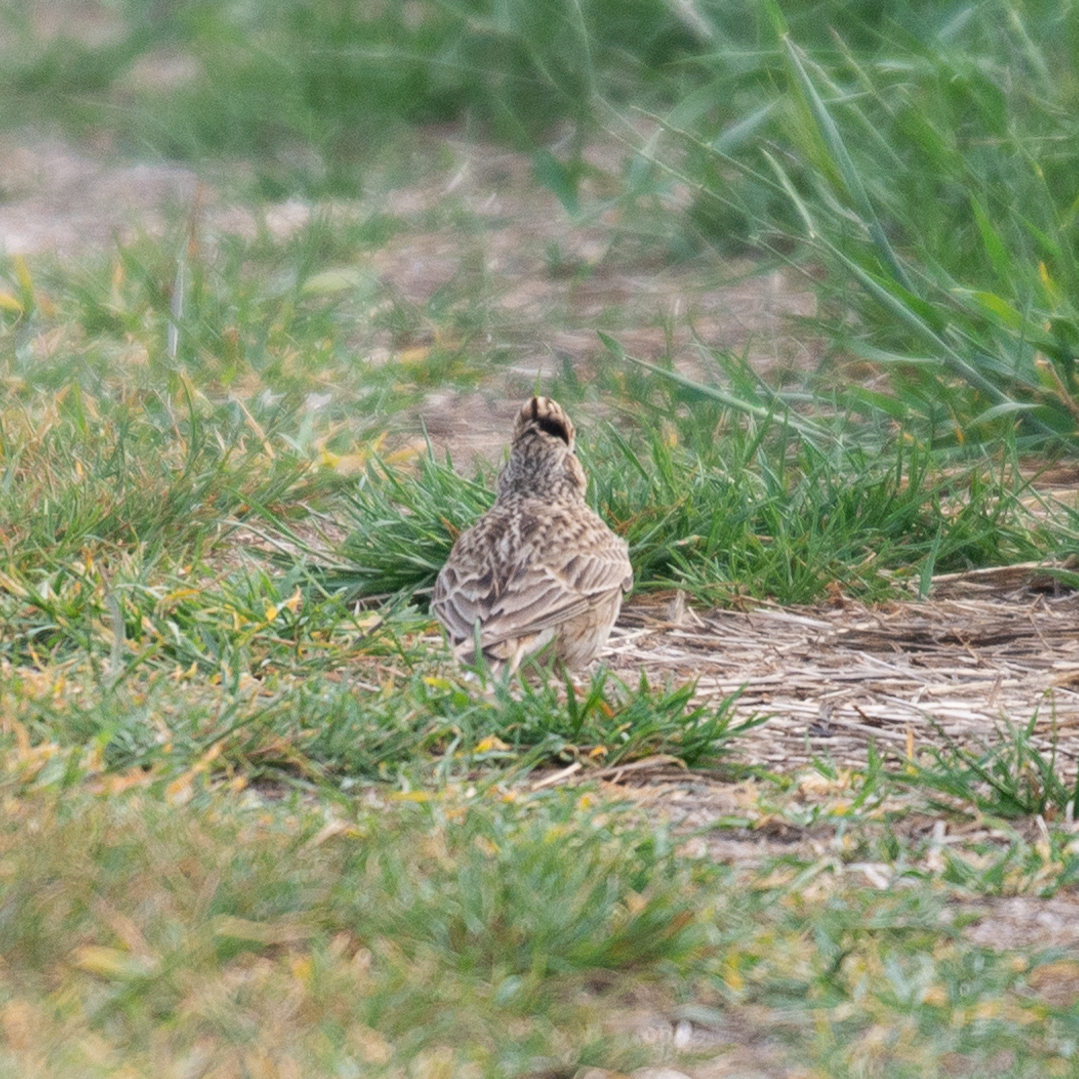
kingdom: Animalia
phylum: Chordata
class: Aves
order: Passeriformes
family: Alaudidae
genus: Alauda
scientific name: Alauda arvensis
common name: Eurasian skylark
